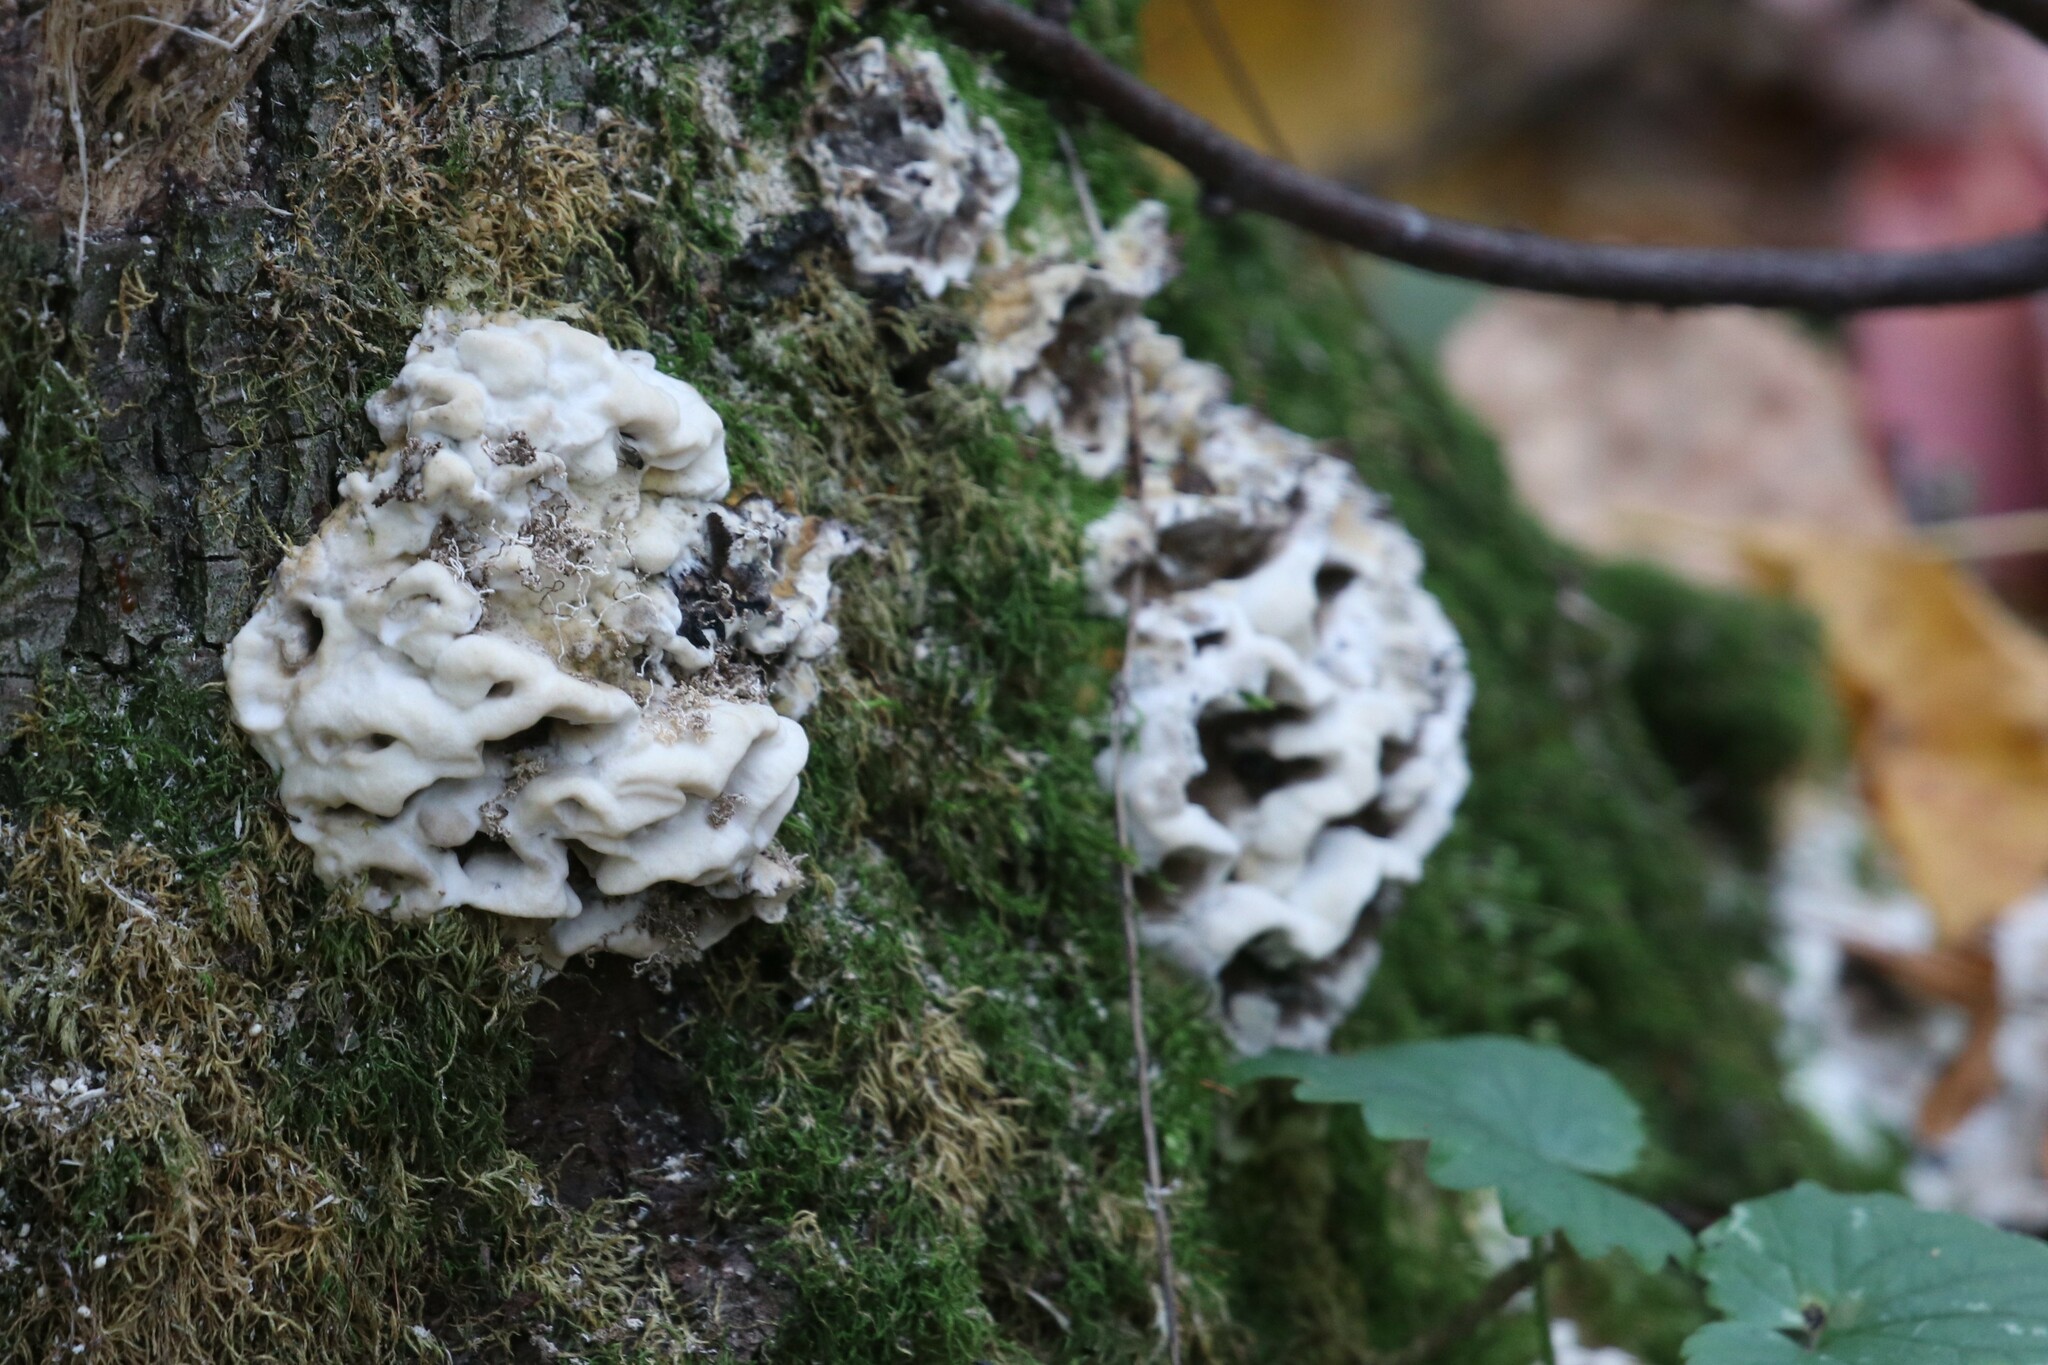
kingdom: Fungi
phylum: Basidiomycota
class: Agaricomycetes
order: Polyporales
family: Phanerochaetaceae
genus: Bjerkandera
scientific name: Bjerkandera adusta
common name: Smoky bracket
